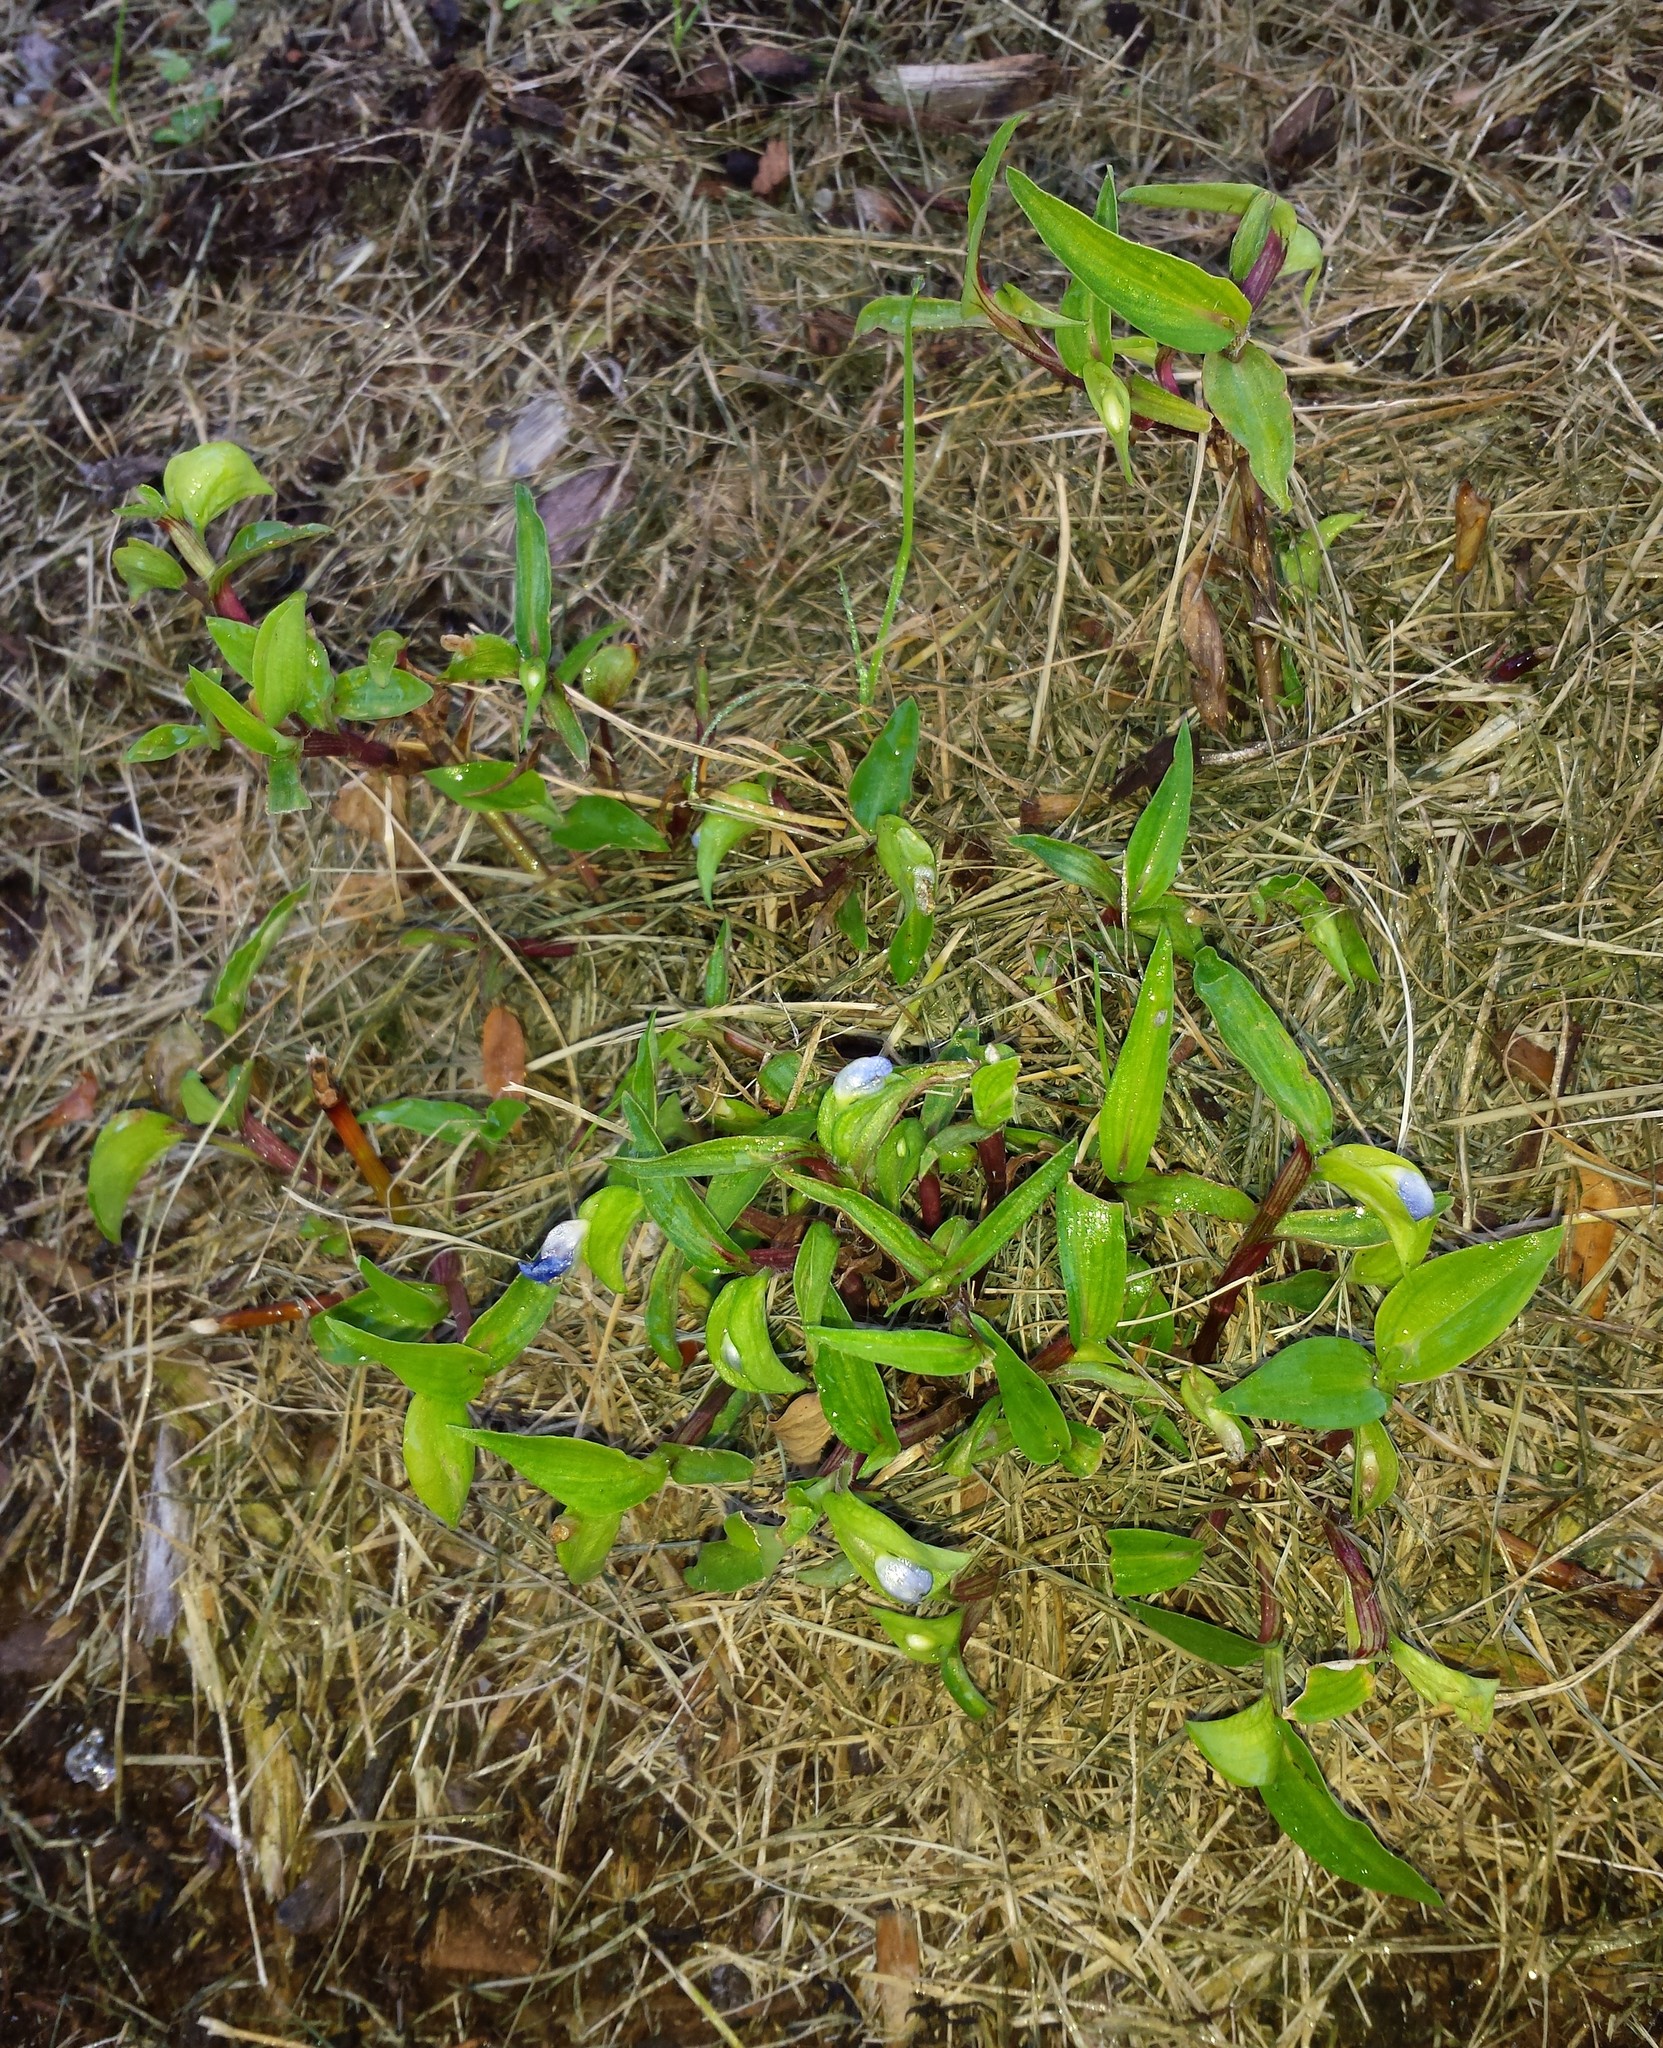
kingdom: Plantae
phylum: Tracheophyta
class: Liliopsida
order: Commelinales
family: Commelinaceae
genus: Commelina
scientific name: Commelina communis
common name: Asiatic dayflower
